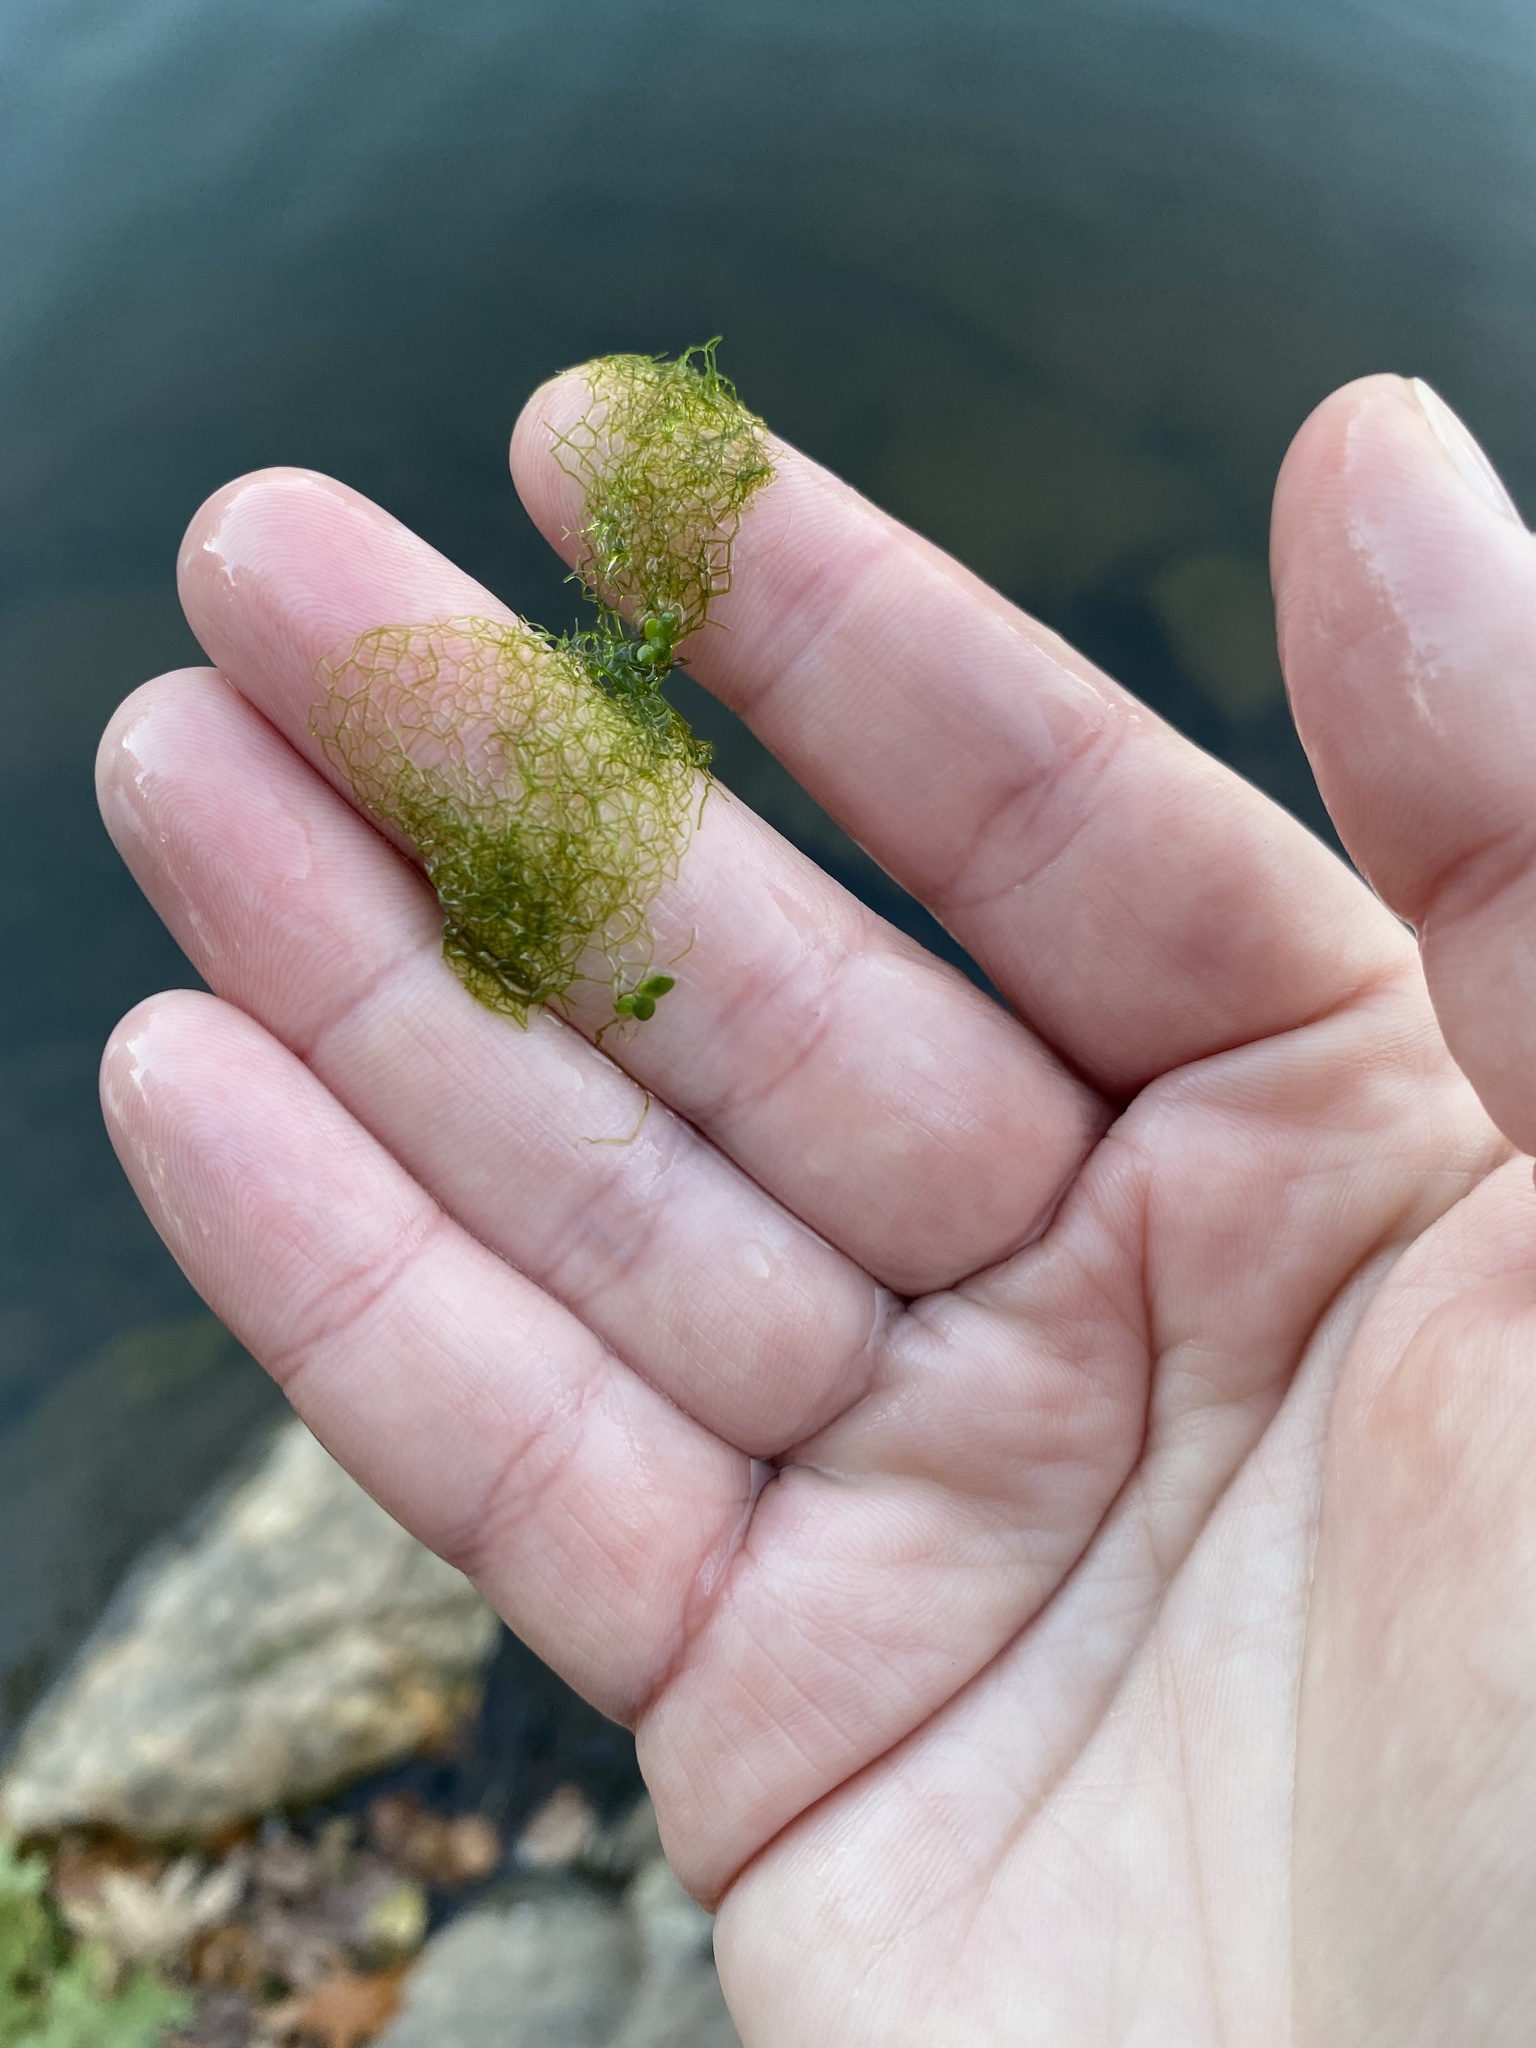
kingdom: Plantae
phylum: Chlorophyta
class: Chlorophyceae
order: Sphaeropleales
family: Hydrodictyaceae
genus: Hydrodictyon
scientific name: Hydrodictyon reticulatum
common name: Water net
